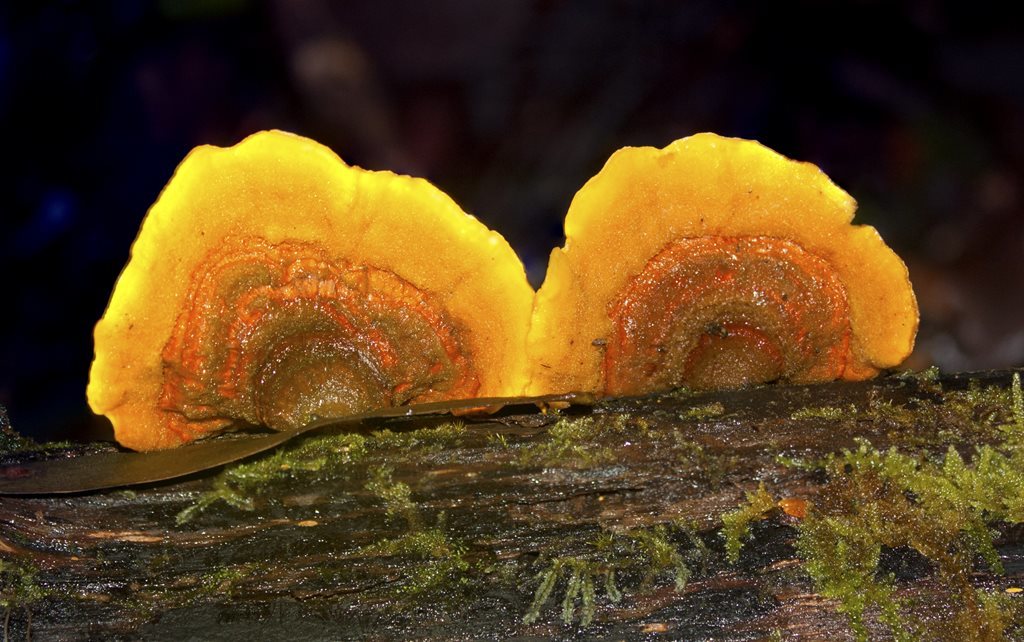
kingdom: Fungi
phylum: Basidiomycota
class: Agaricomycetes
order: Russulales
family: Stereaceae
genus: Stereum
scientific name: Stereum versicolor
